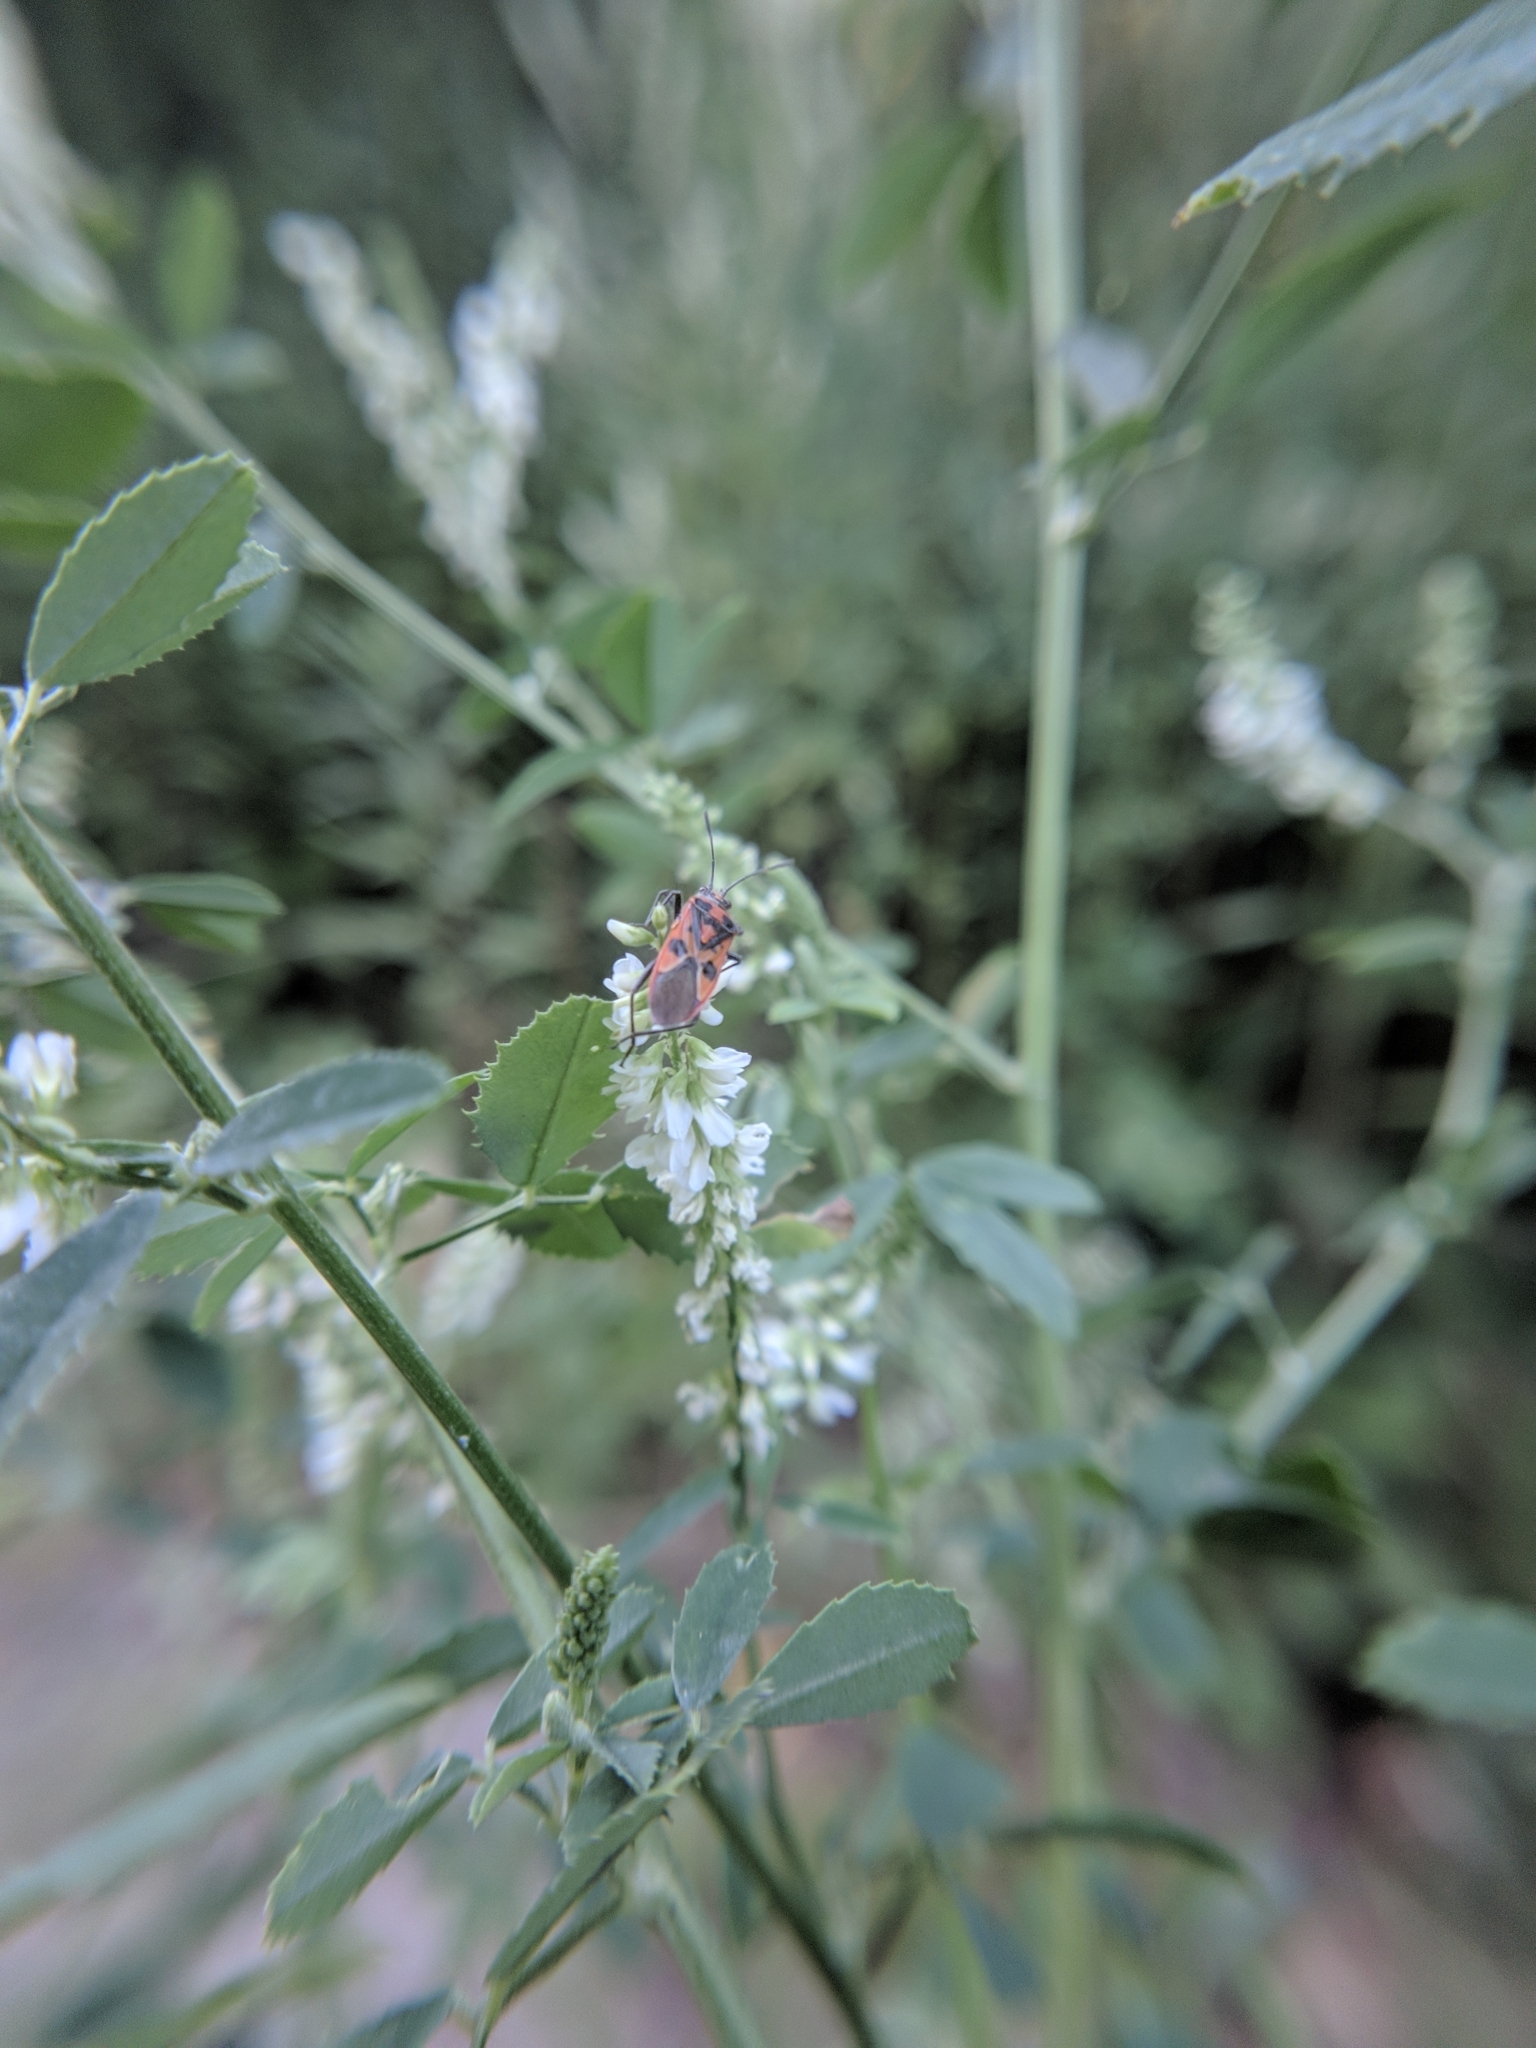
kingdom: Animalia
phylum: Arthropoda
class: Insecta
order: Hemiptera
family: Rhopalidae
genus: Corizus
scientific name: Corizus hyoscyami
